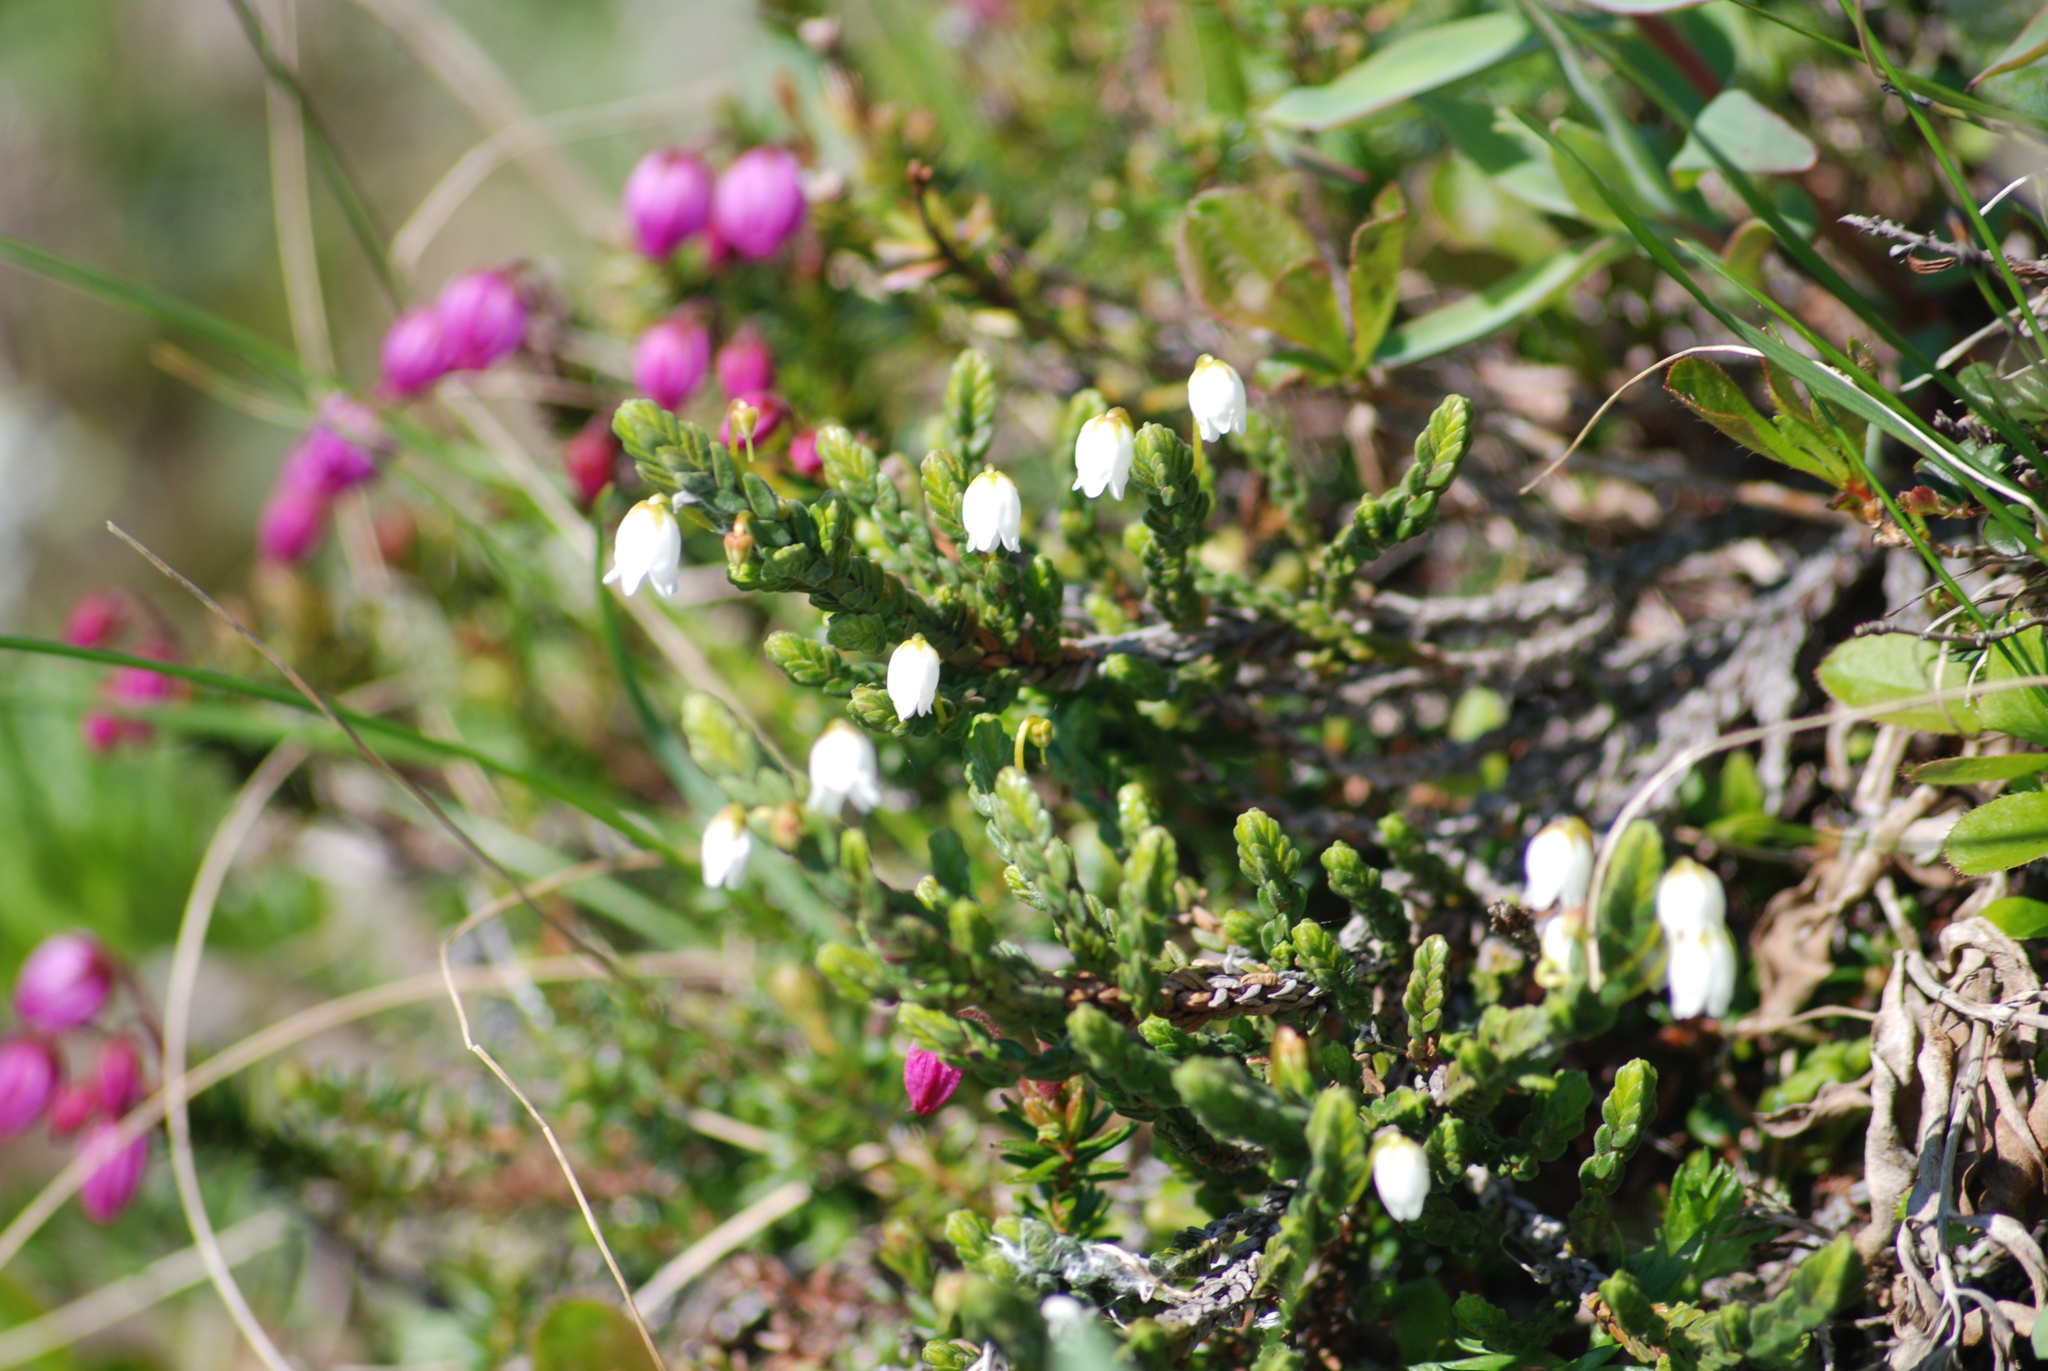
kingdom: Plantae
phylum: Tracheophyta
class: Magnoliopsida
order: Ericales
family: Ericaceae
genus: Cassiope
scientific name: Cassiope tetragona
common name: Arctic bell heather
